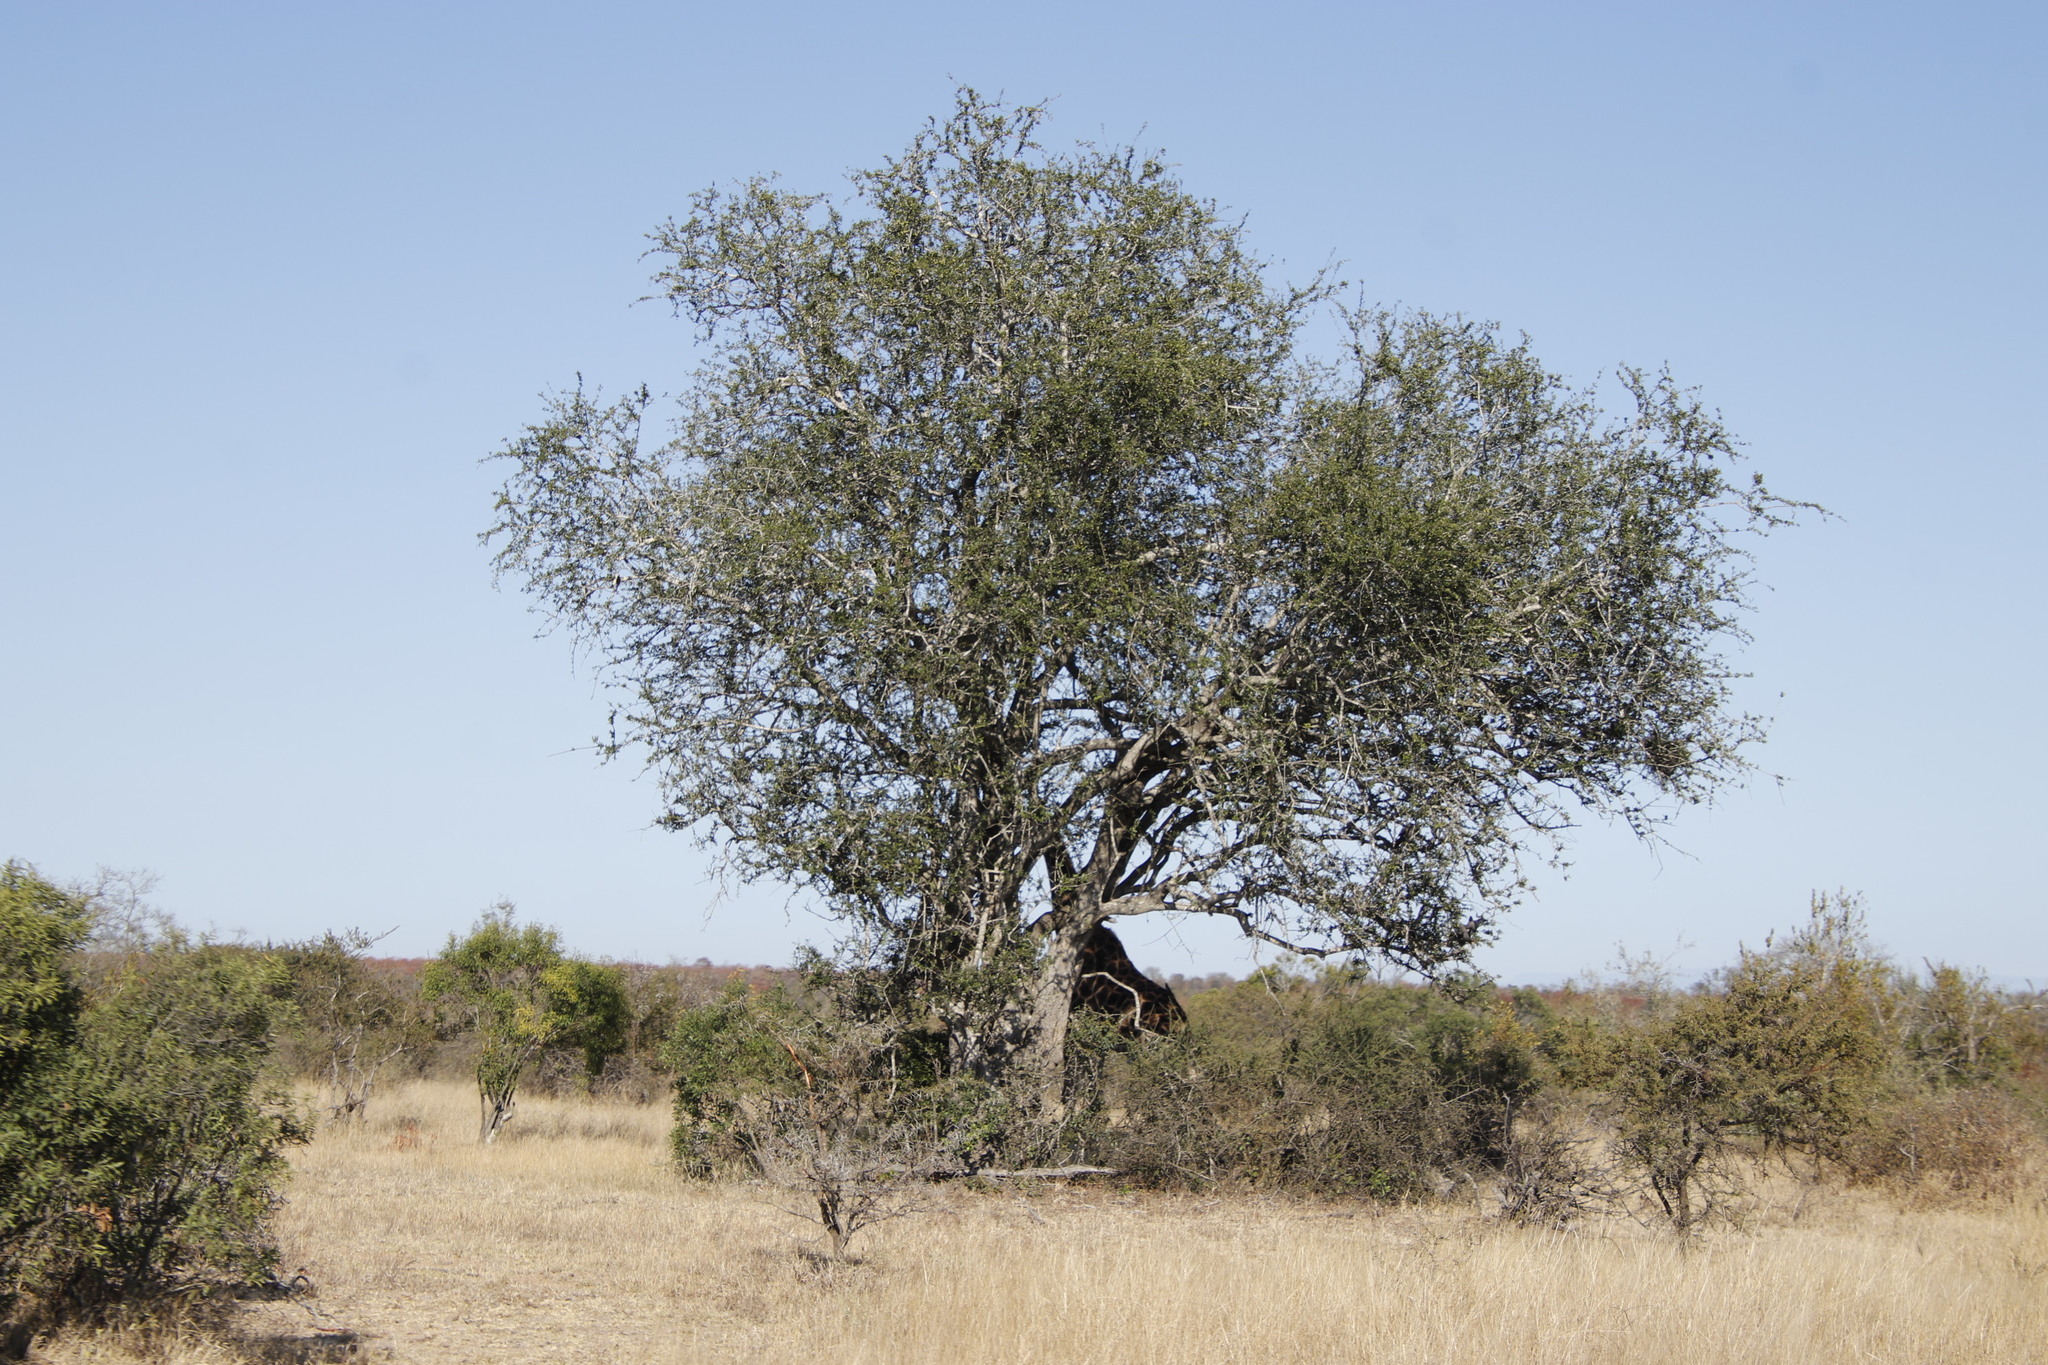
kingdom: Plantae
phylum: Tracheophyta
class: Magnoliopsida
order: Myrtales
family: Combretaceae
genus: Combretum
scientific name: Combretum imberbe
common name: Leadwood
